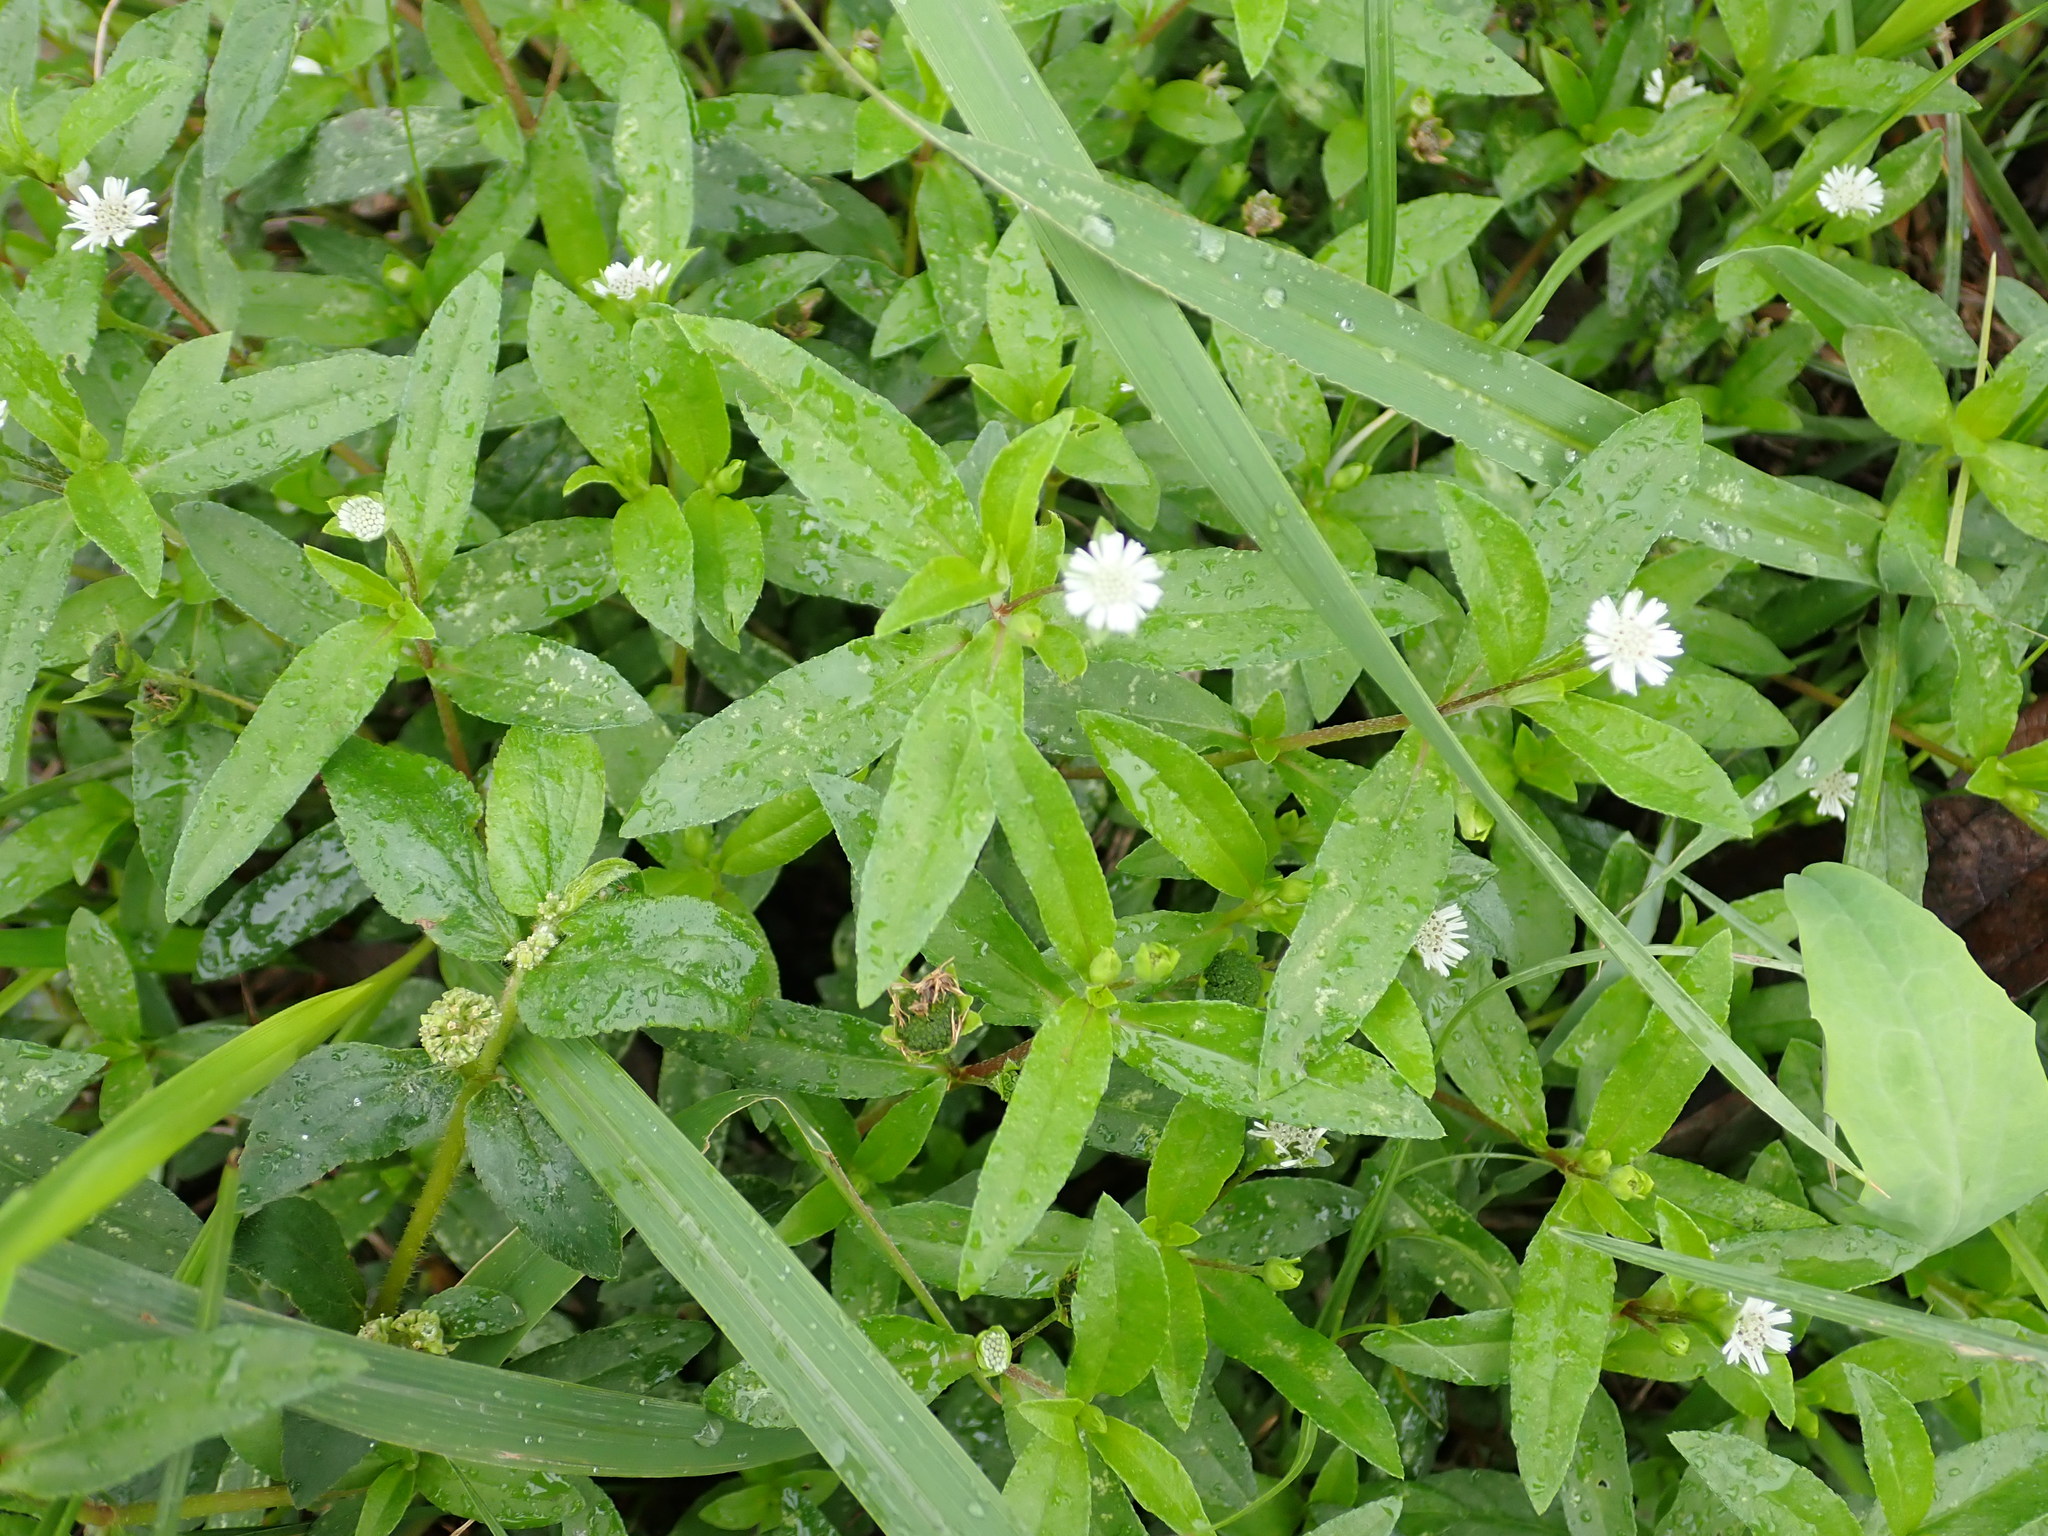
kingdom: Plantae
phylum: Tracheophyta
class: Magnoliopsida
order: Asterales
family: Asteraceae
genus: Eclipta
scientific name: Eclipta prostrata
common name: False daisy
